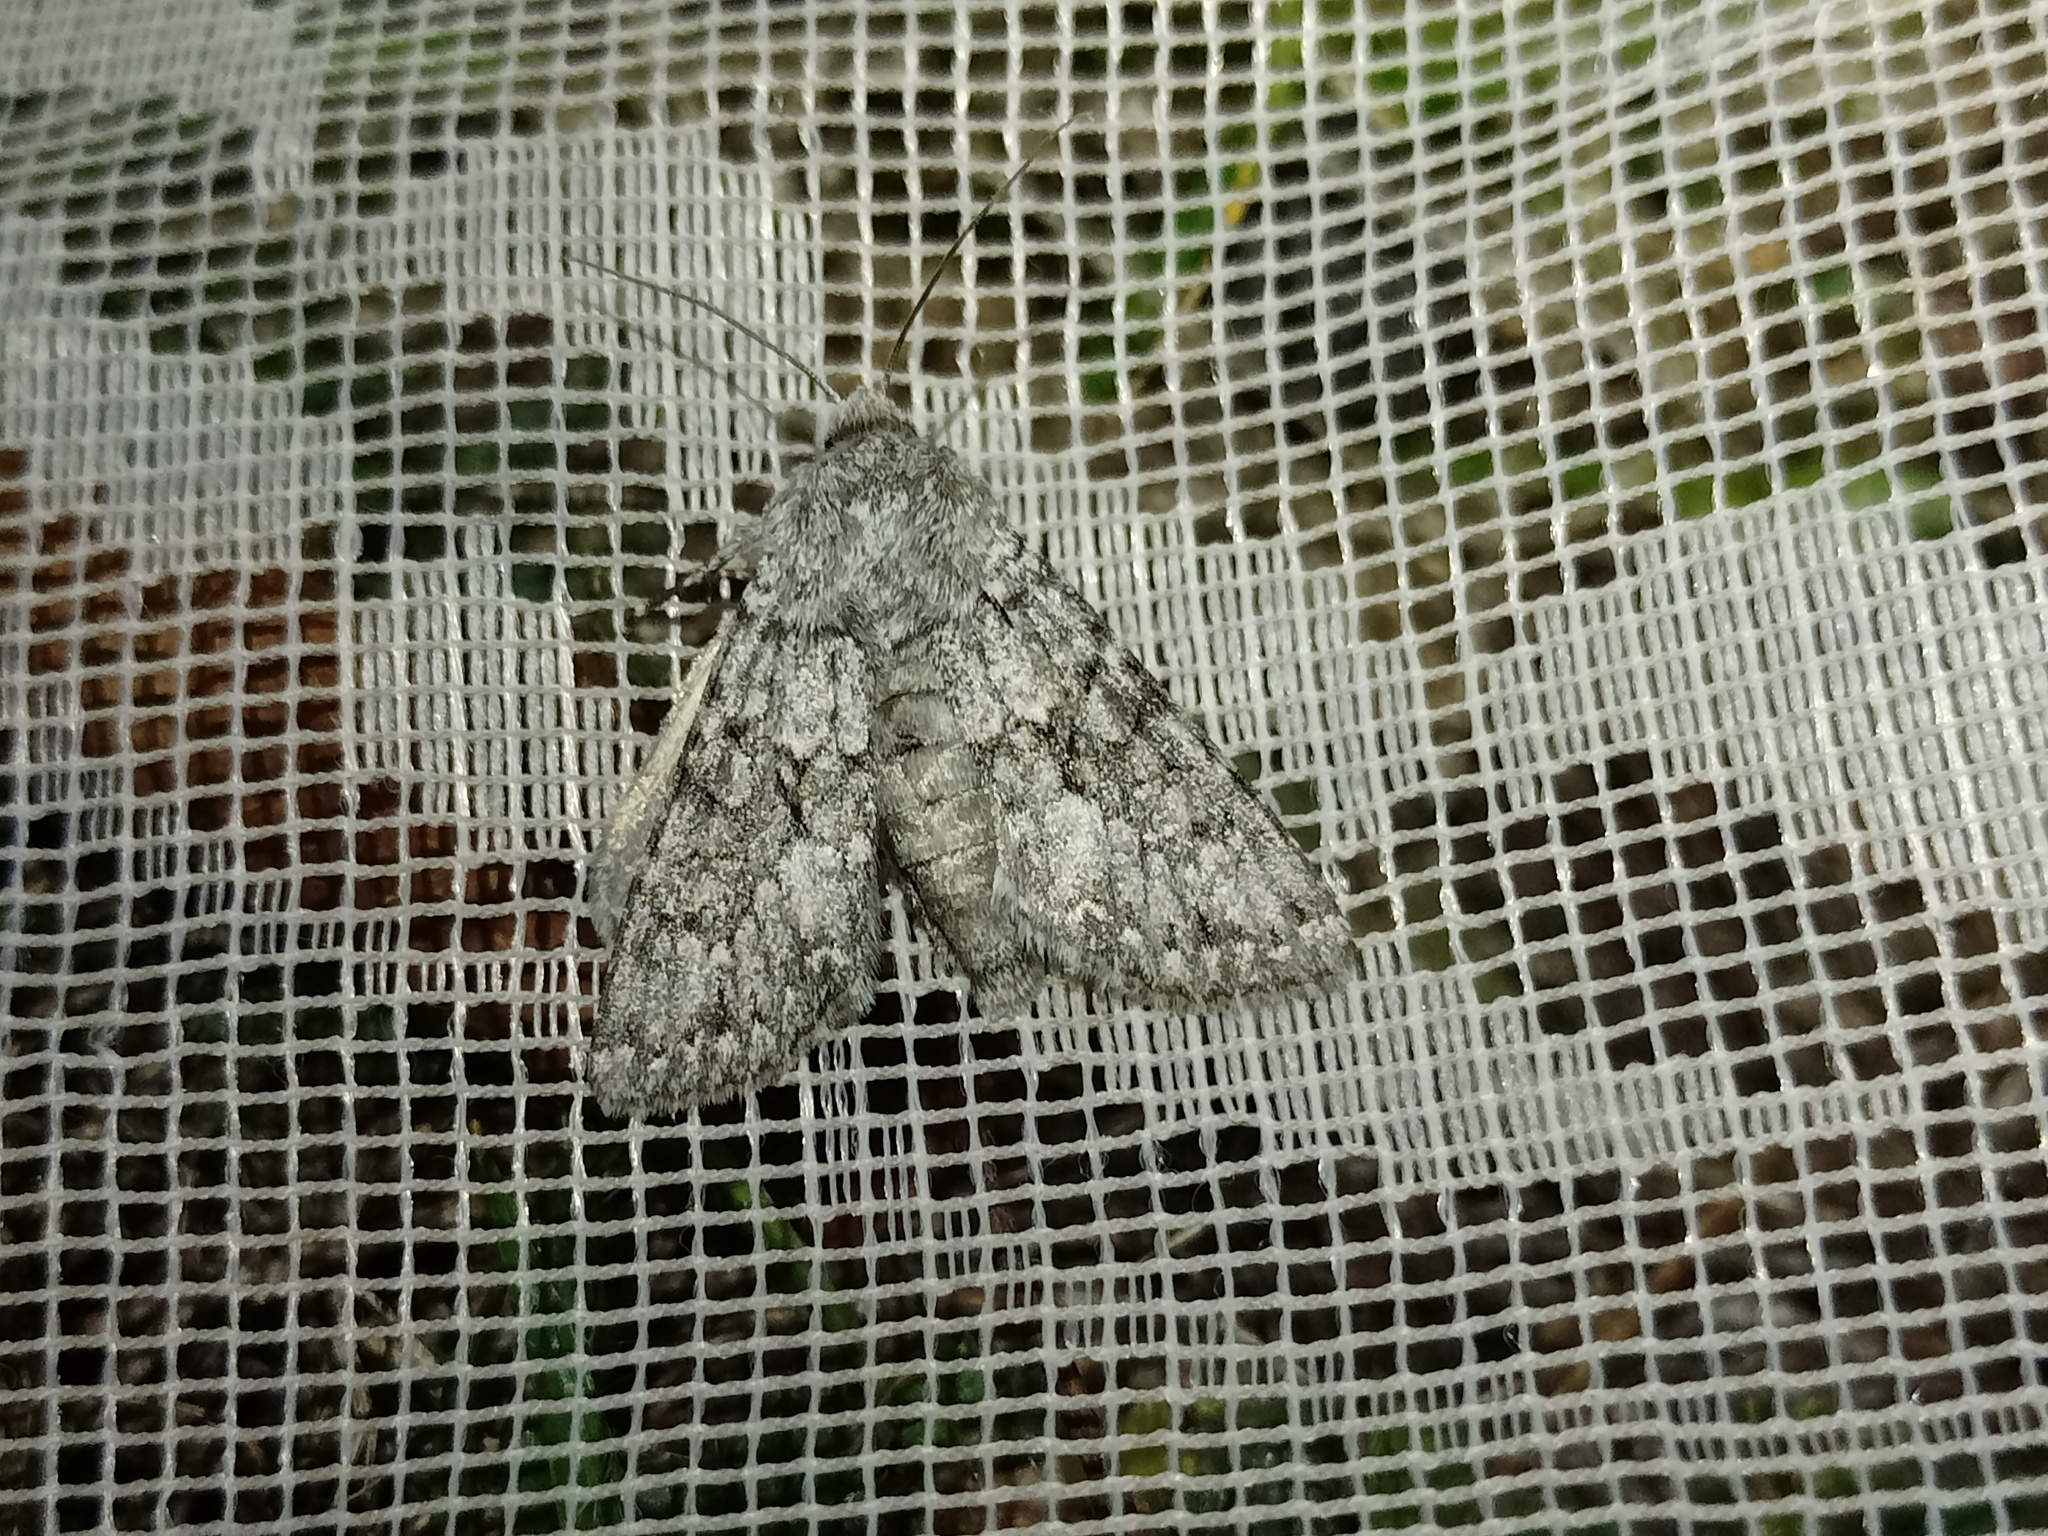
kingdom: Animalia
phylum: Arthropoda
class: Insecta
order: Lepidoptera
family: Noctuidae
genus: Antitype
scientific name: Antitype chi
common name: Grey chi
